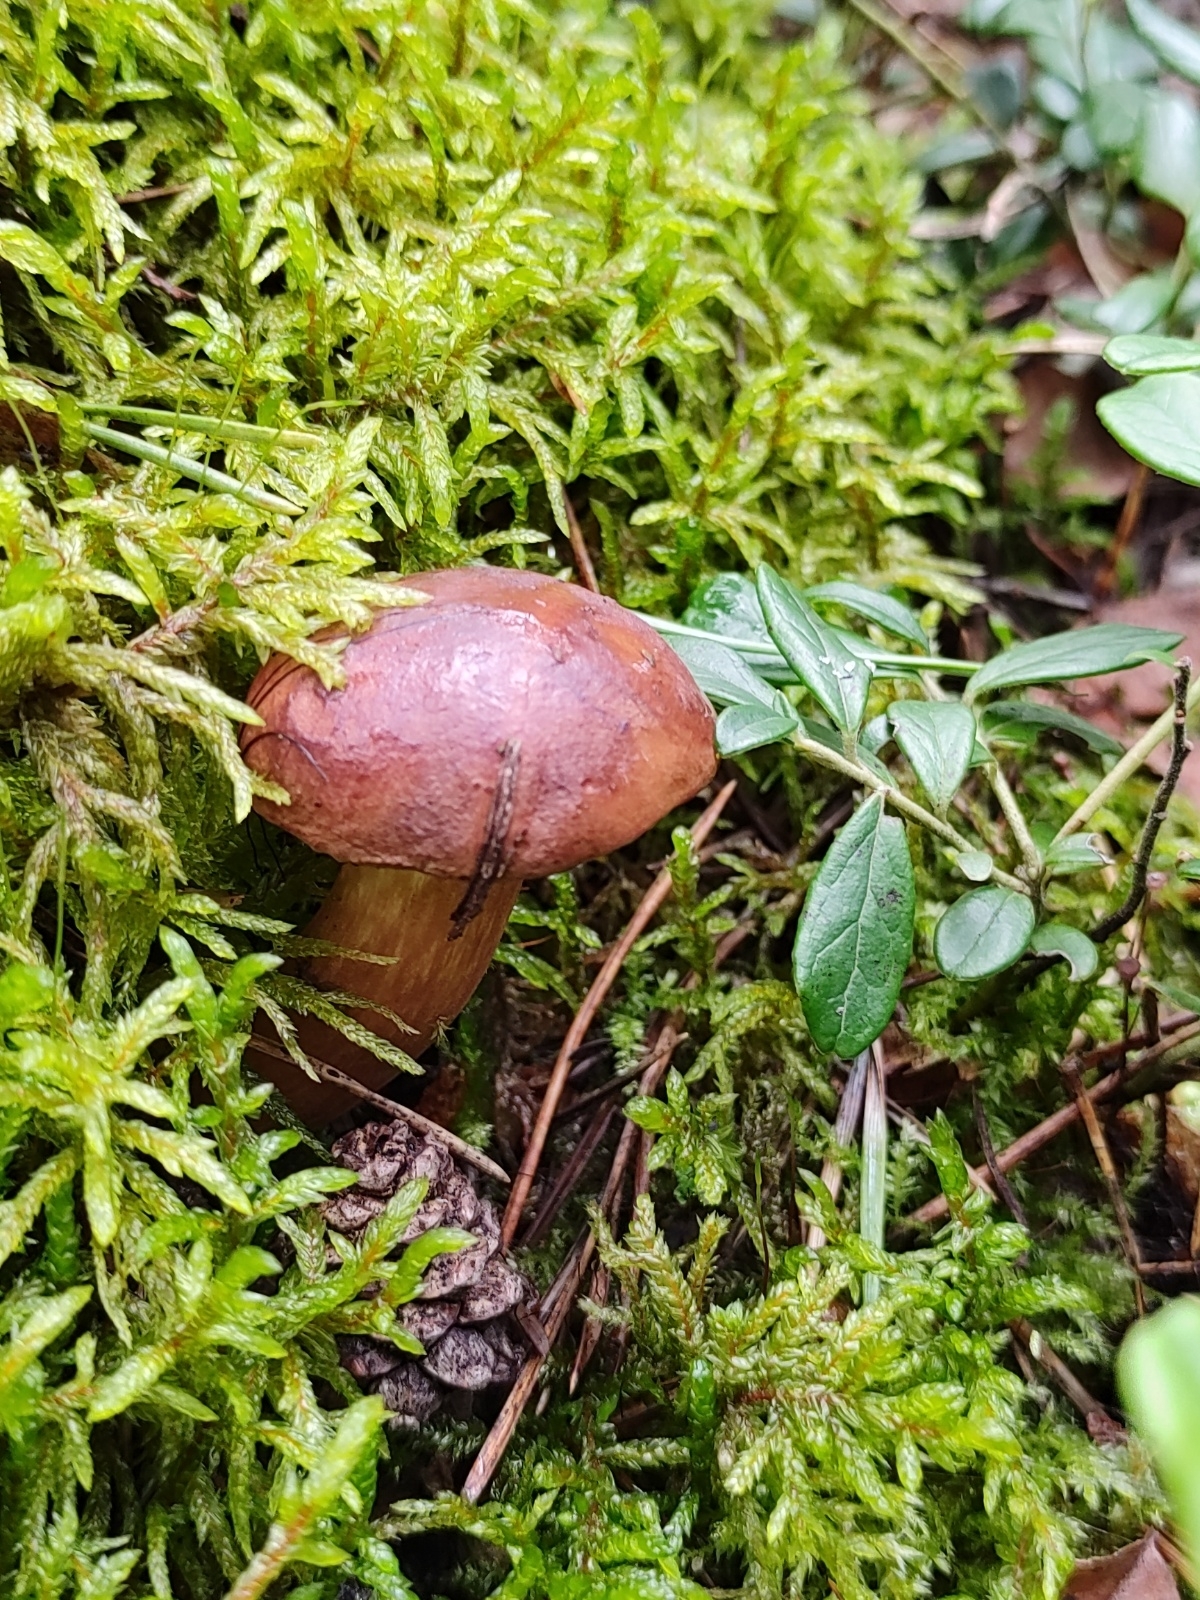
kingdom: Fungi
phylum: Basidiomycota
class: Agaricomycetes
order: Boletales
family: Boletaceae
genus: Imleria
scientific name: Imleria badia
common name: Bay bolete
